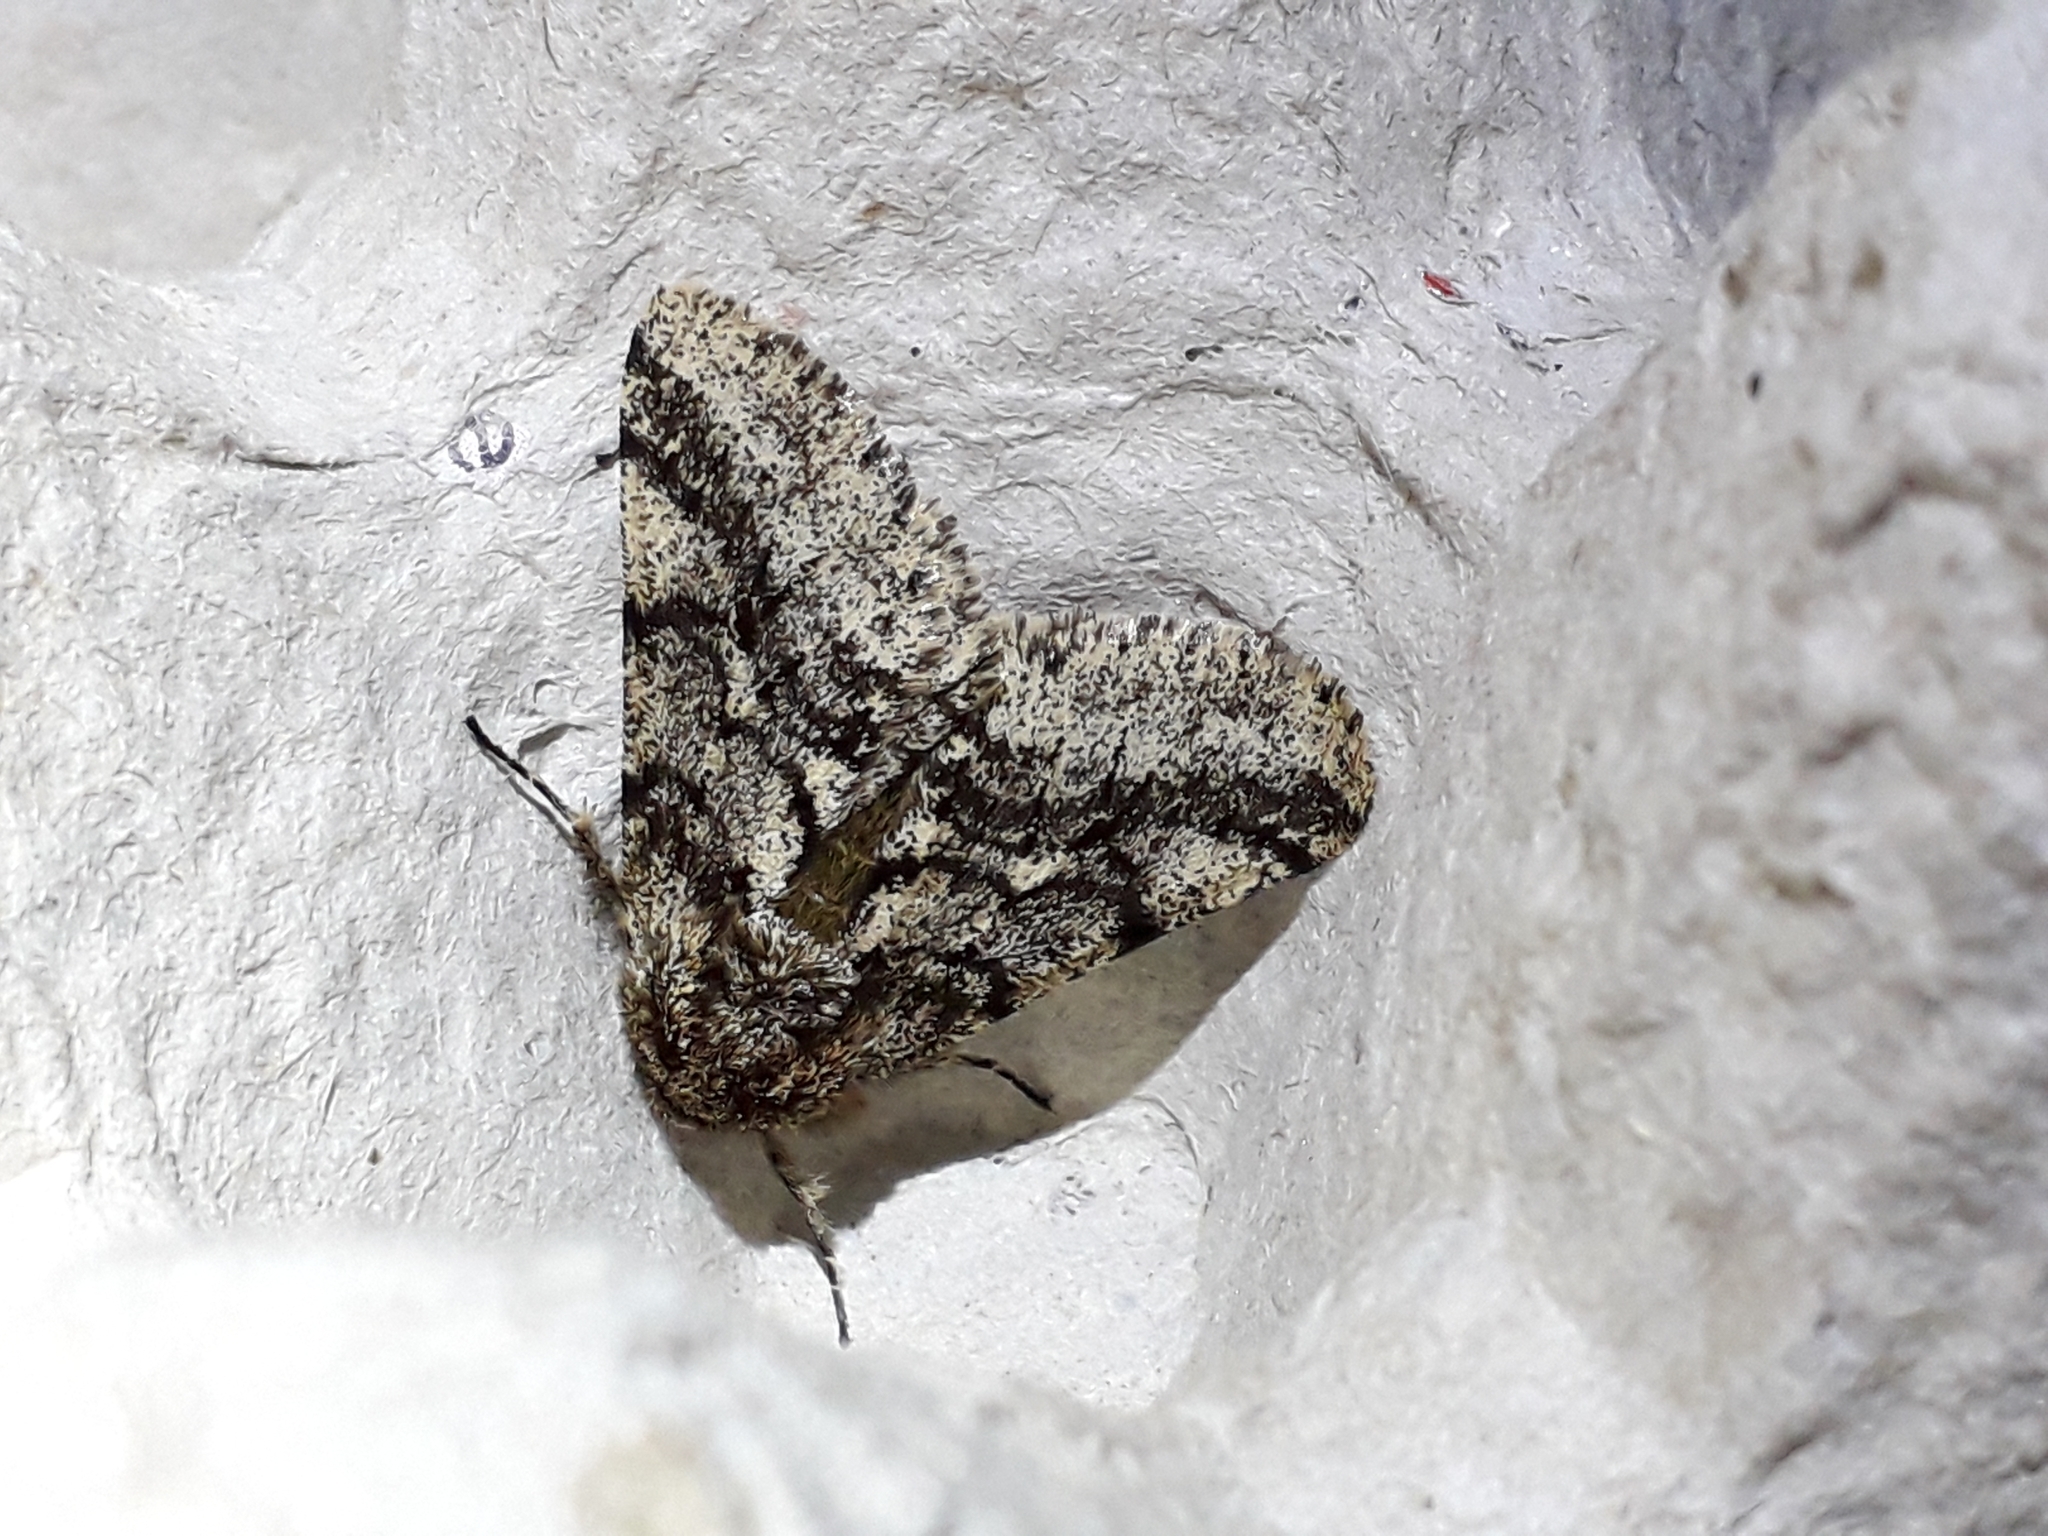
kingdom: Animalia
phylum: Arthropoda
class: Insecta
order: Lepidoptera
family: Geometridae
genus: Lycia
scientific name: Lycia hirtaria
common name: Brindled beauty
